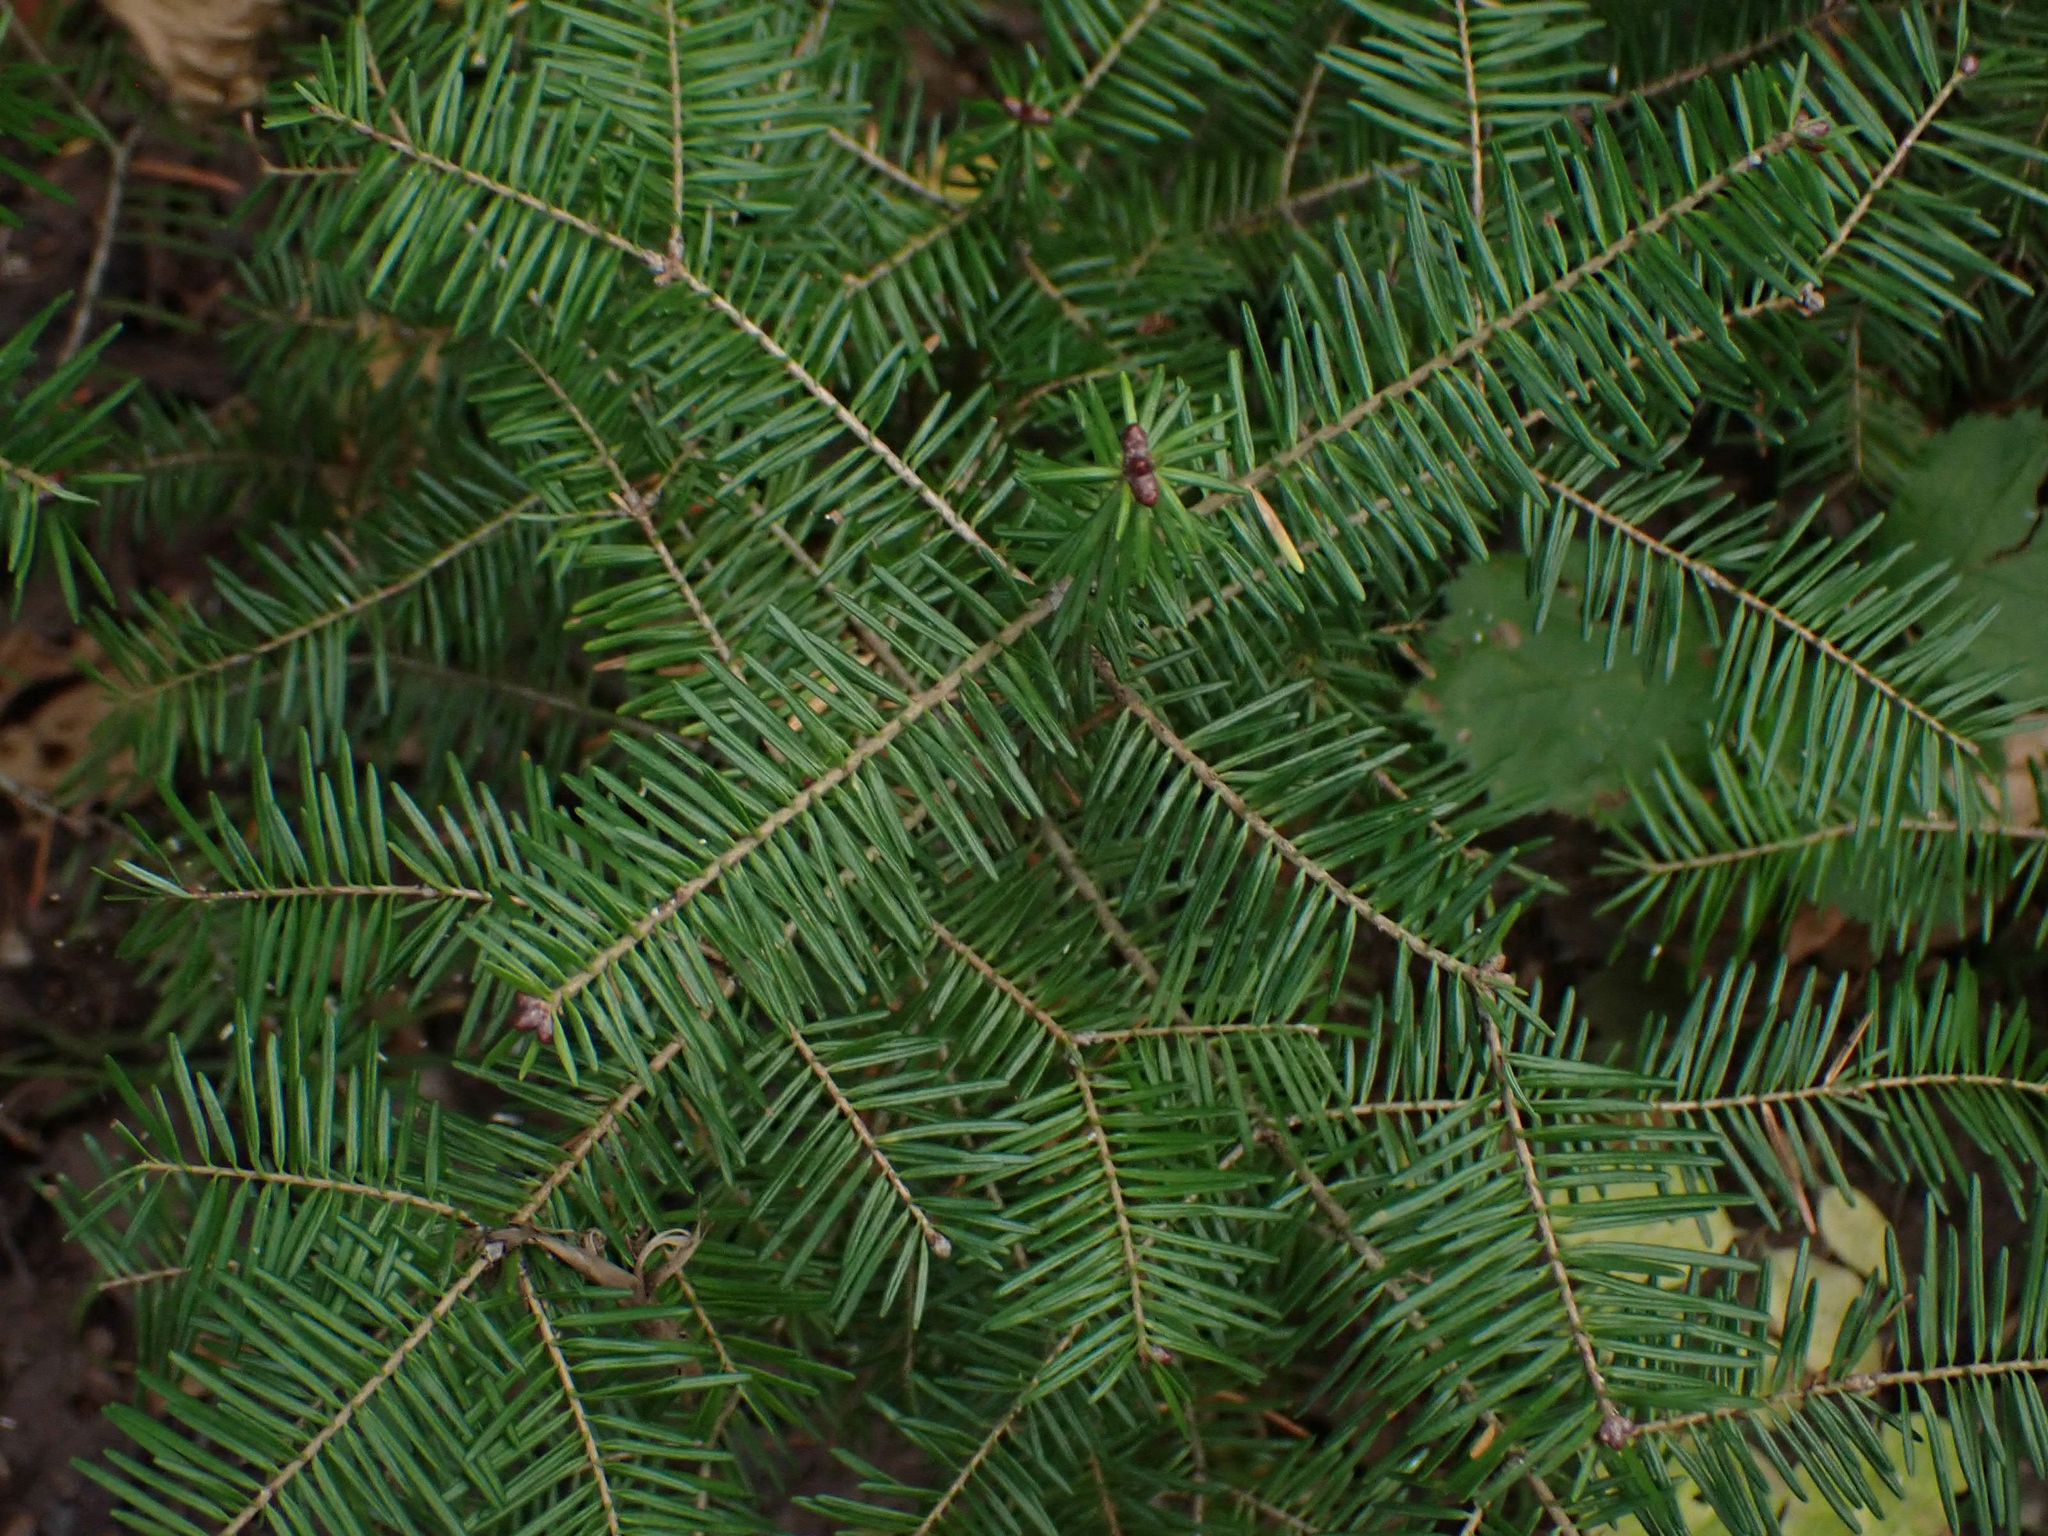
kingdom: Plantae
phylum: Tracheophyta
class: Pinopsida
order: Pinales
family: Pinaceae
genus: Abies
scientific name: Abies balsamea
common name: Balsam fir
